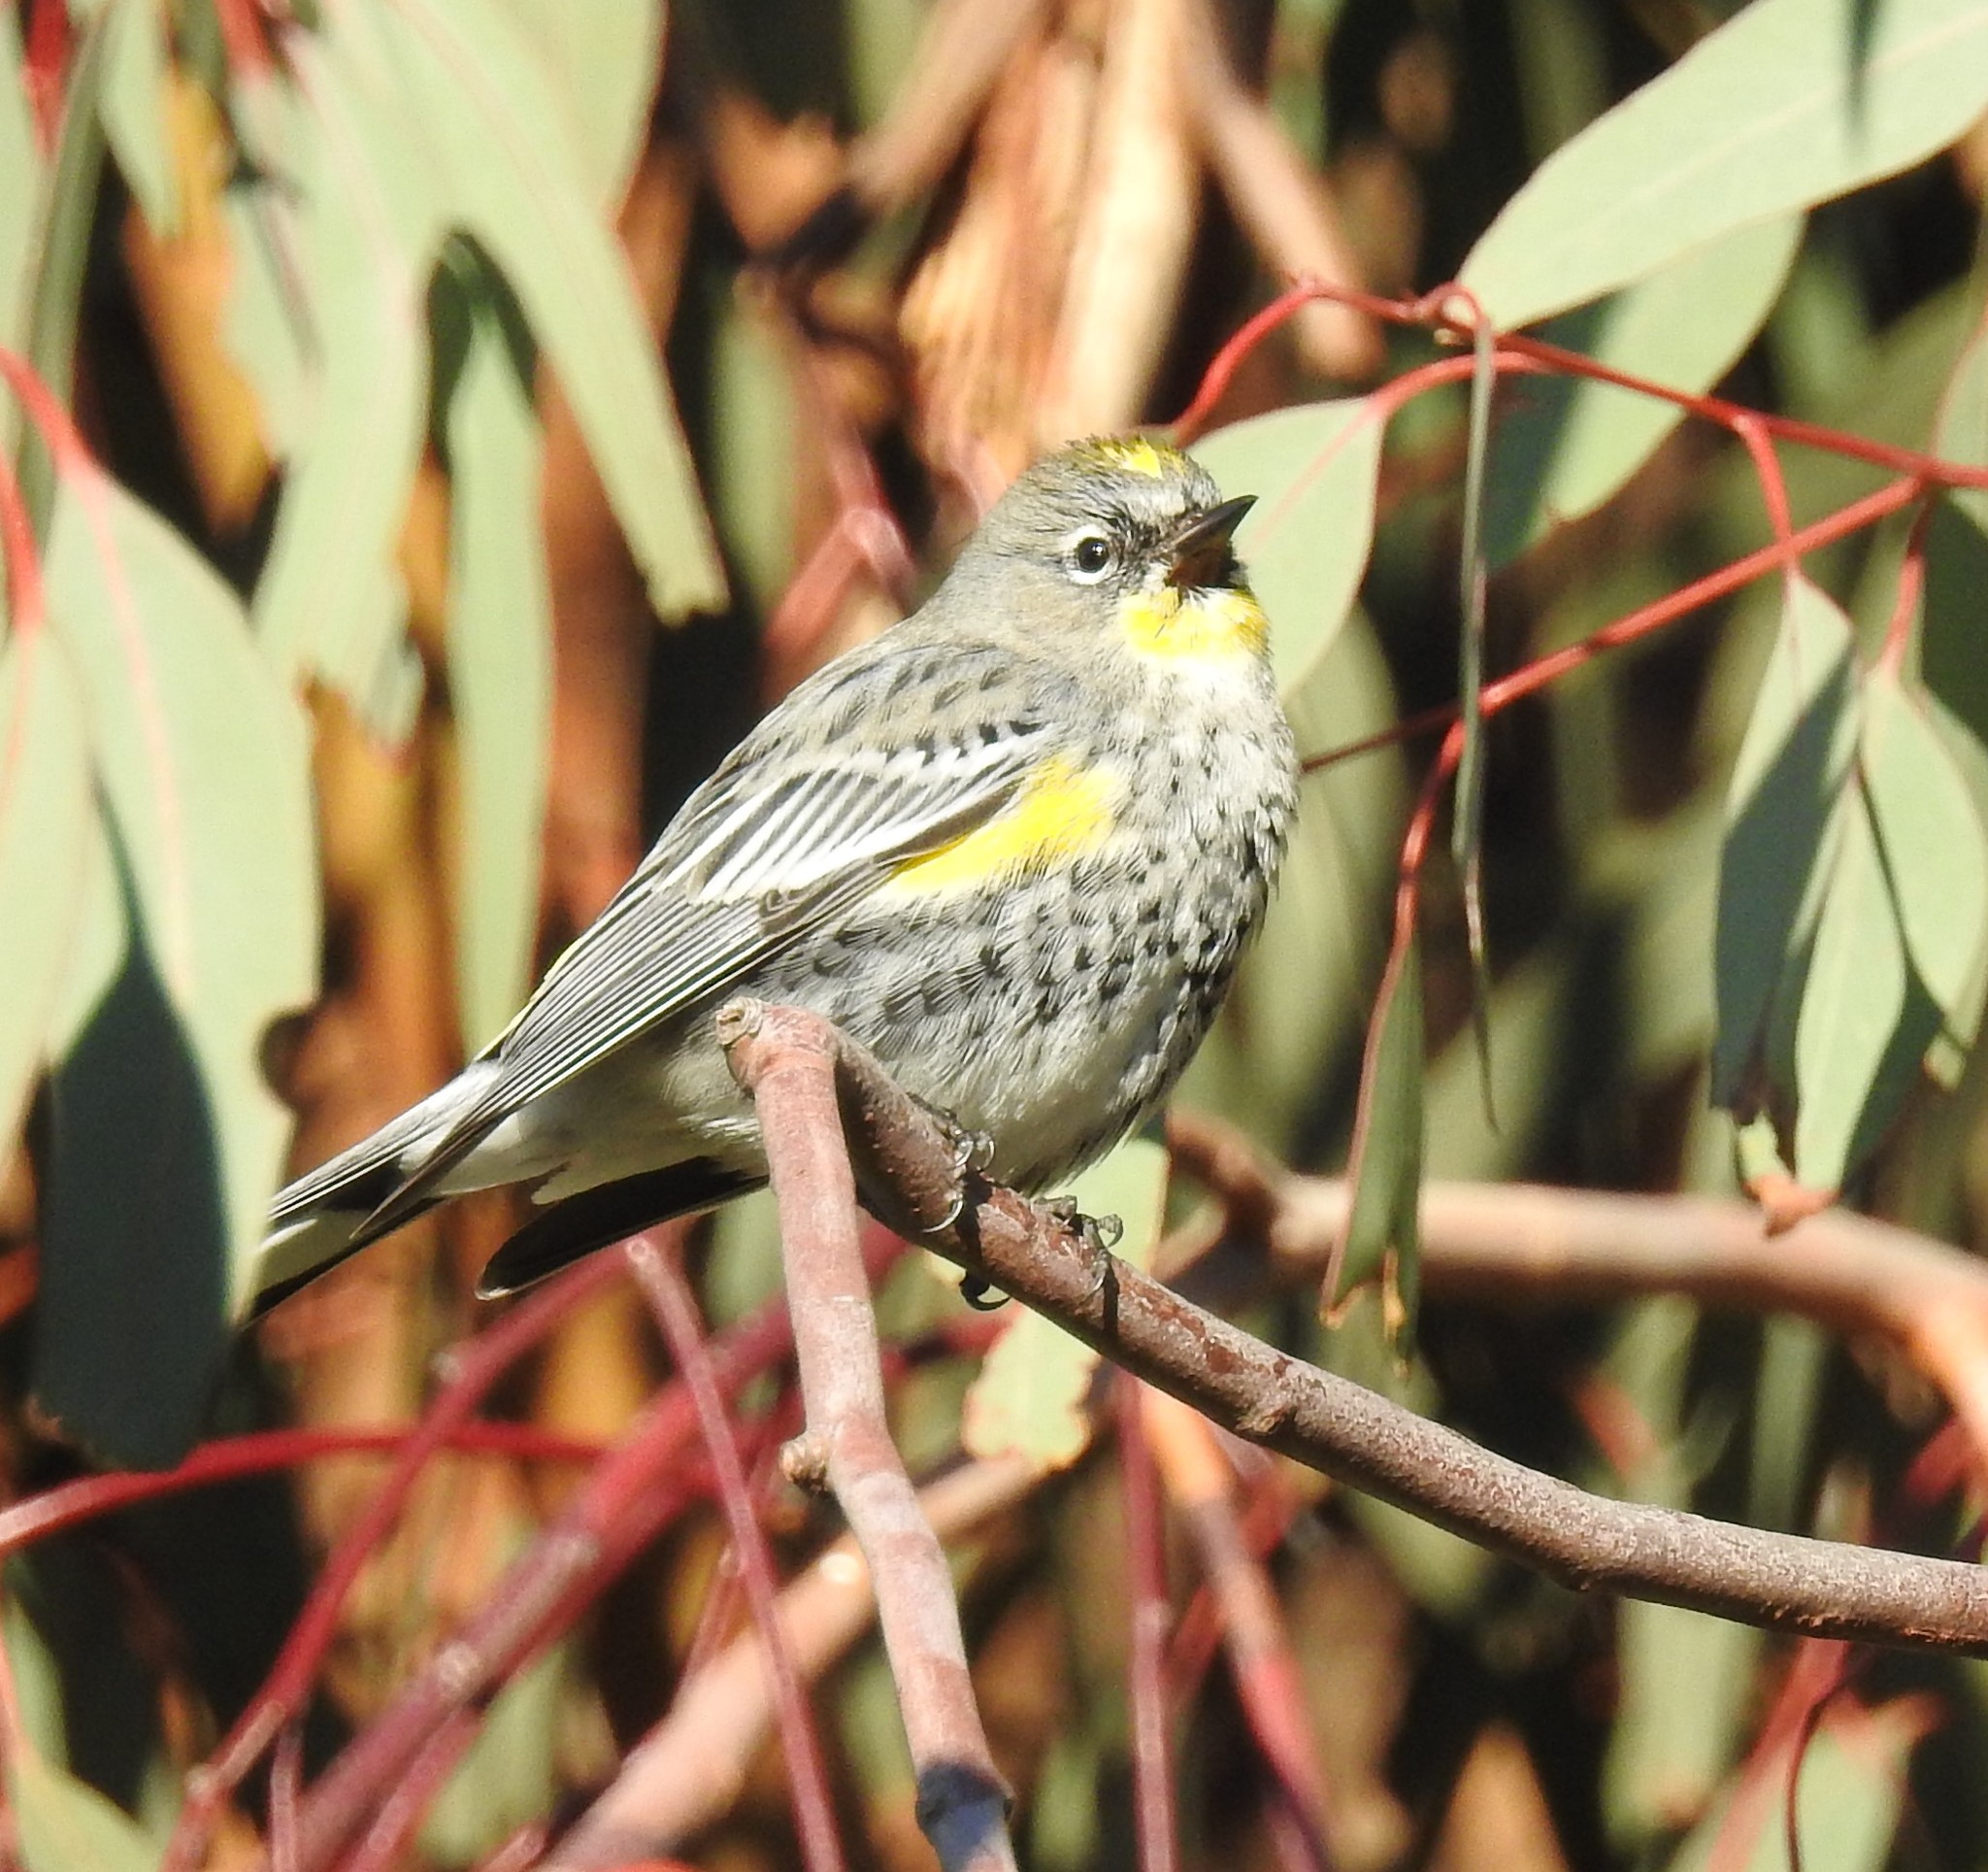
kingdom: Animalia
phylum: Chordata
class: Aves
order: Passeriformes
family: Parulidae
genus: Setophaga
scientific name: Setophaga coronata
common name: Myrtle warbler
